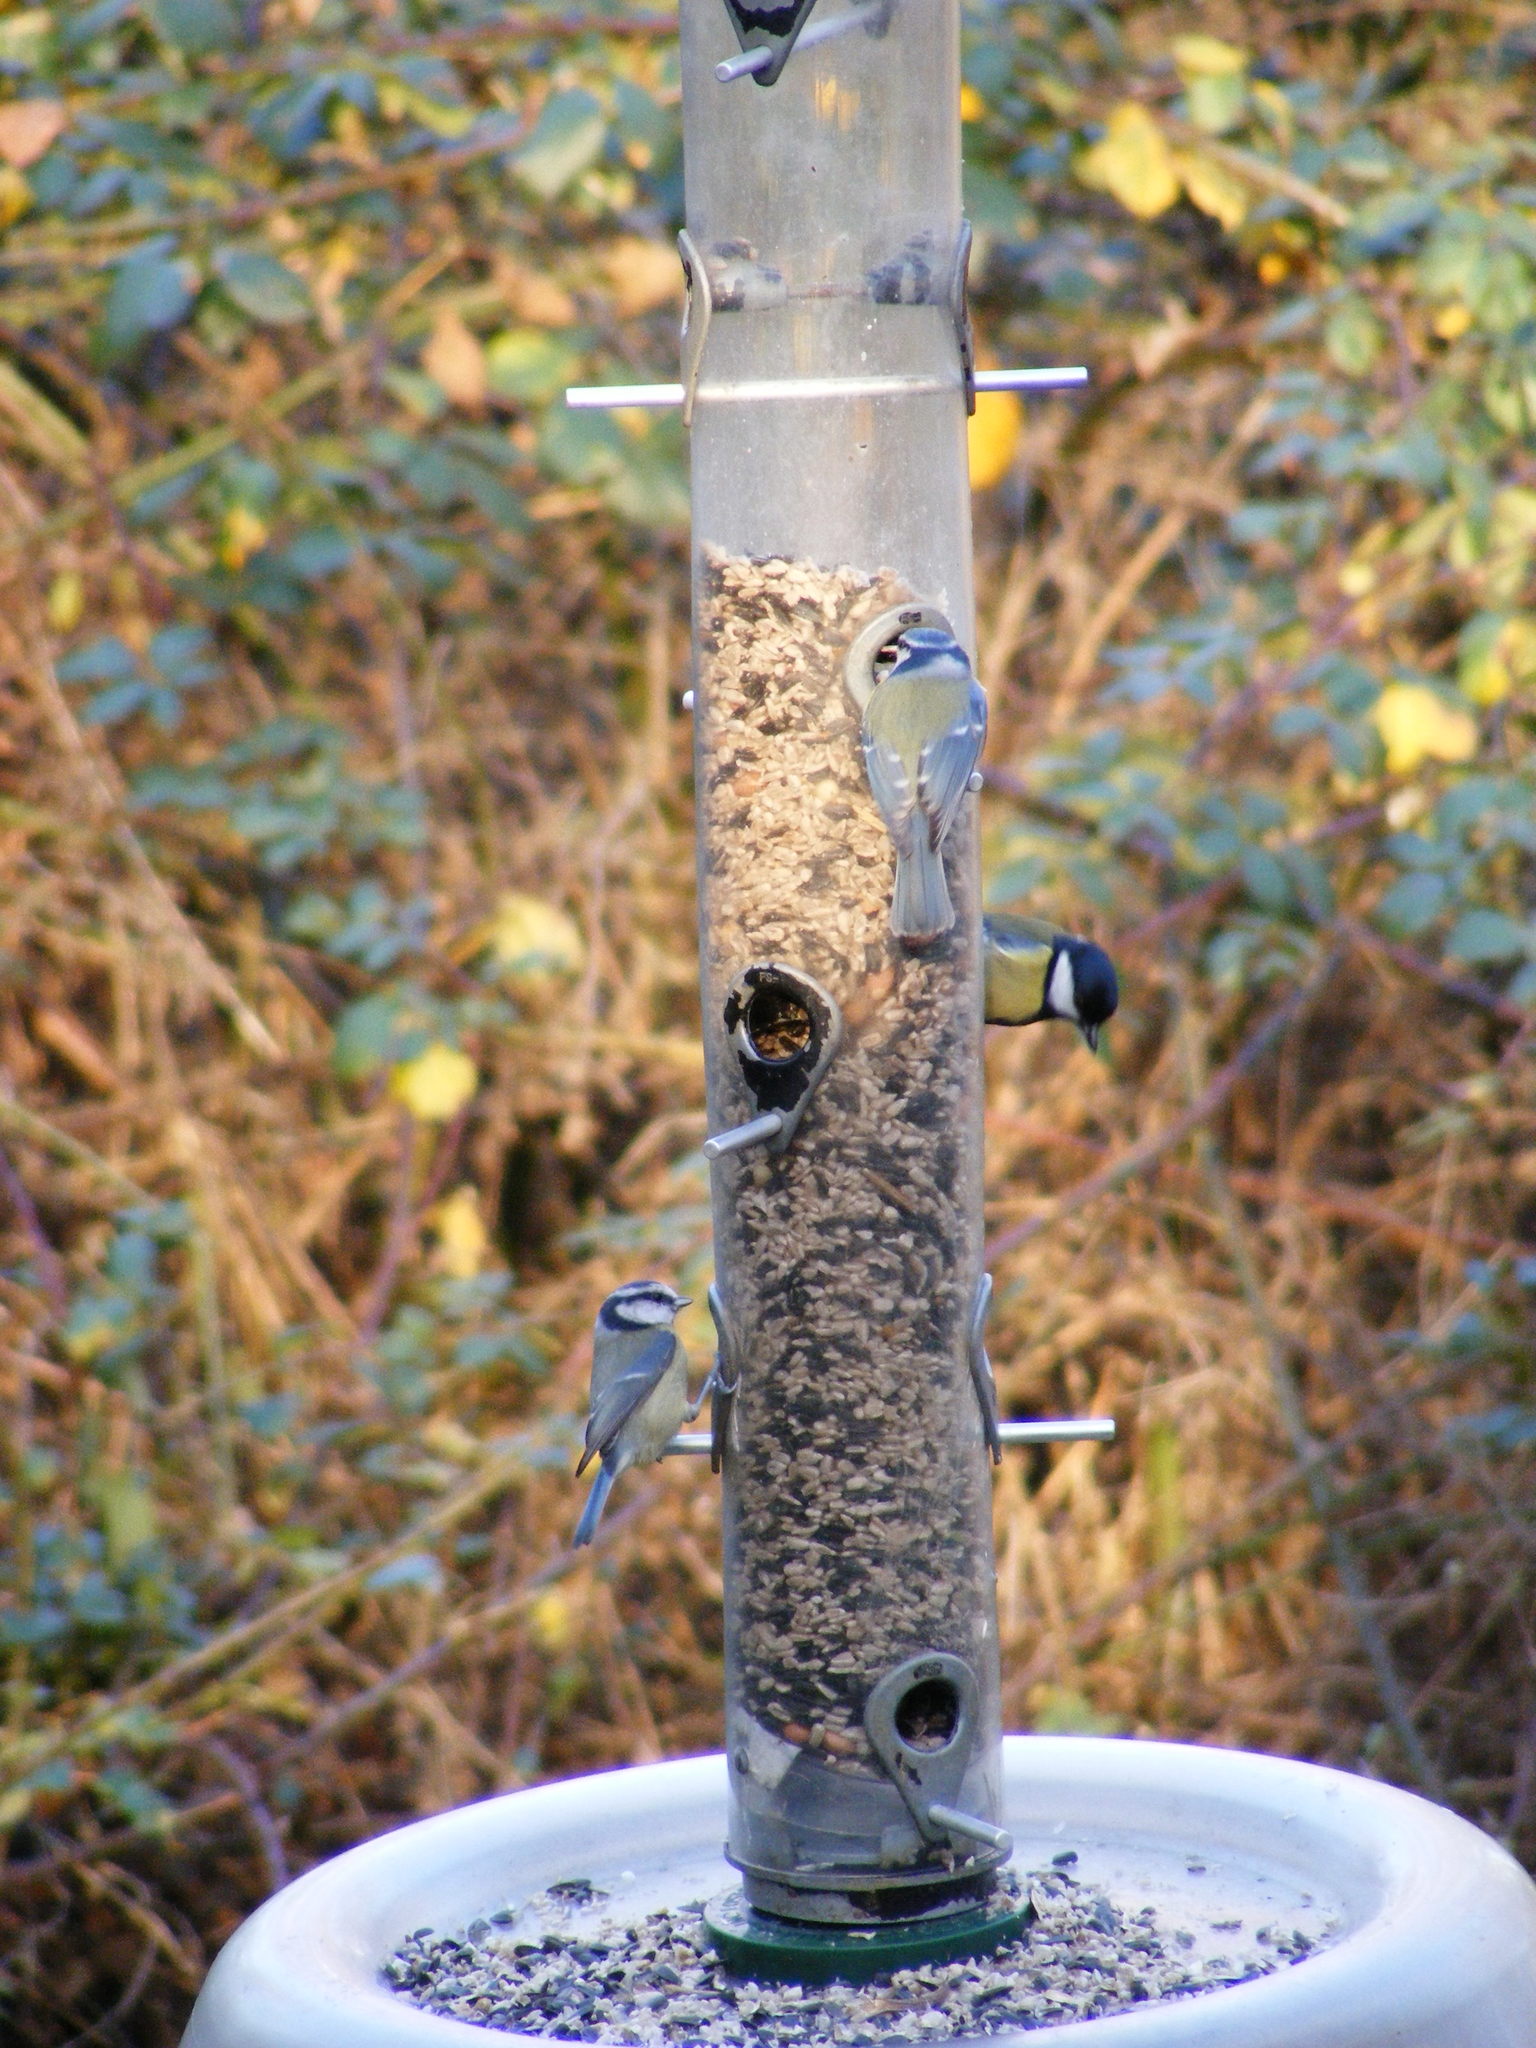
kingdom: Animalia
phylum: Chordata
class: Aves
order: Passeriformes
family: Paridae
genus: Cyanistes
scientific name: Cyanistes caeruleus
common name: Eurasian blue tit
